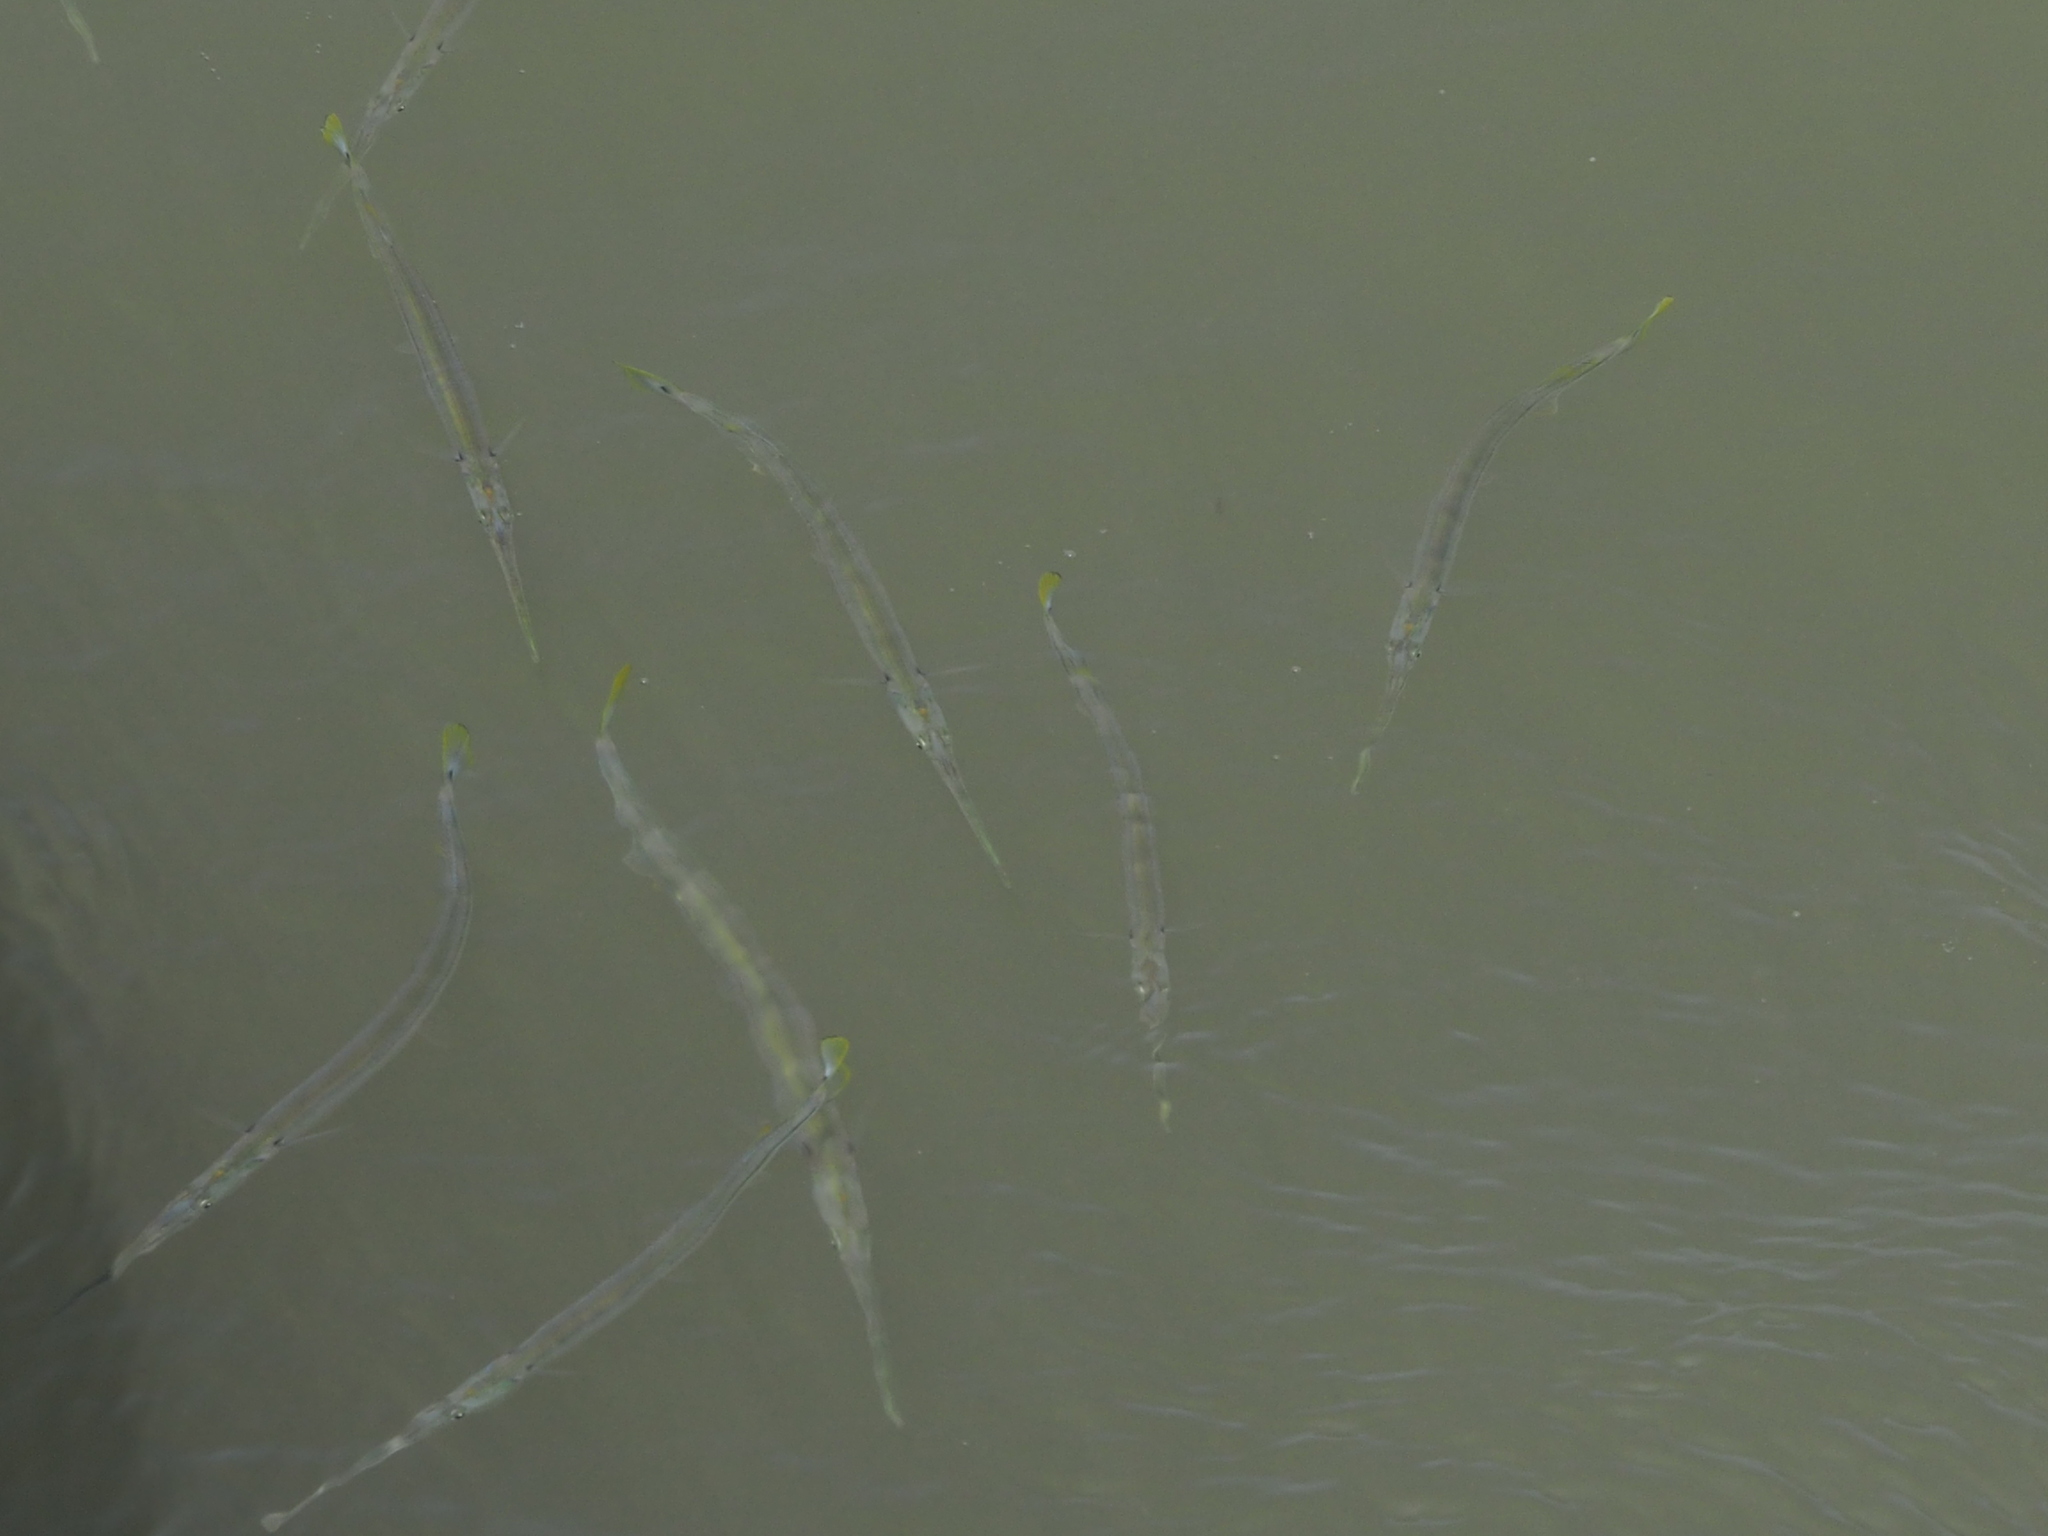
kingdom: Animalia
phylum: Chordata
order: Beloniformes
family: Belonidae
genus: Strongylura
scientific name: Strongylura strongylura
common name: Spottail needlefish
